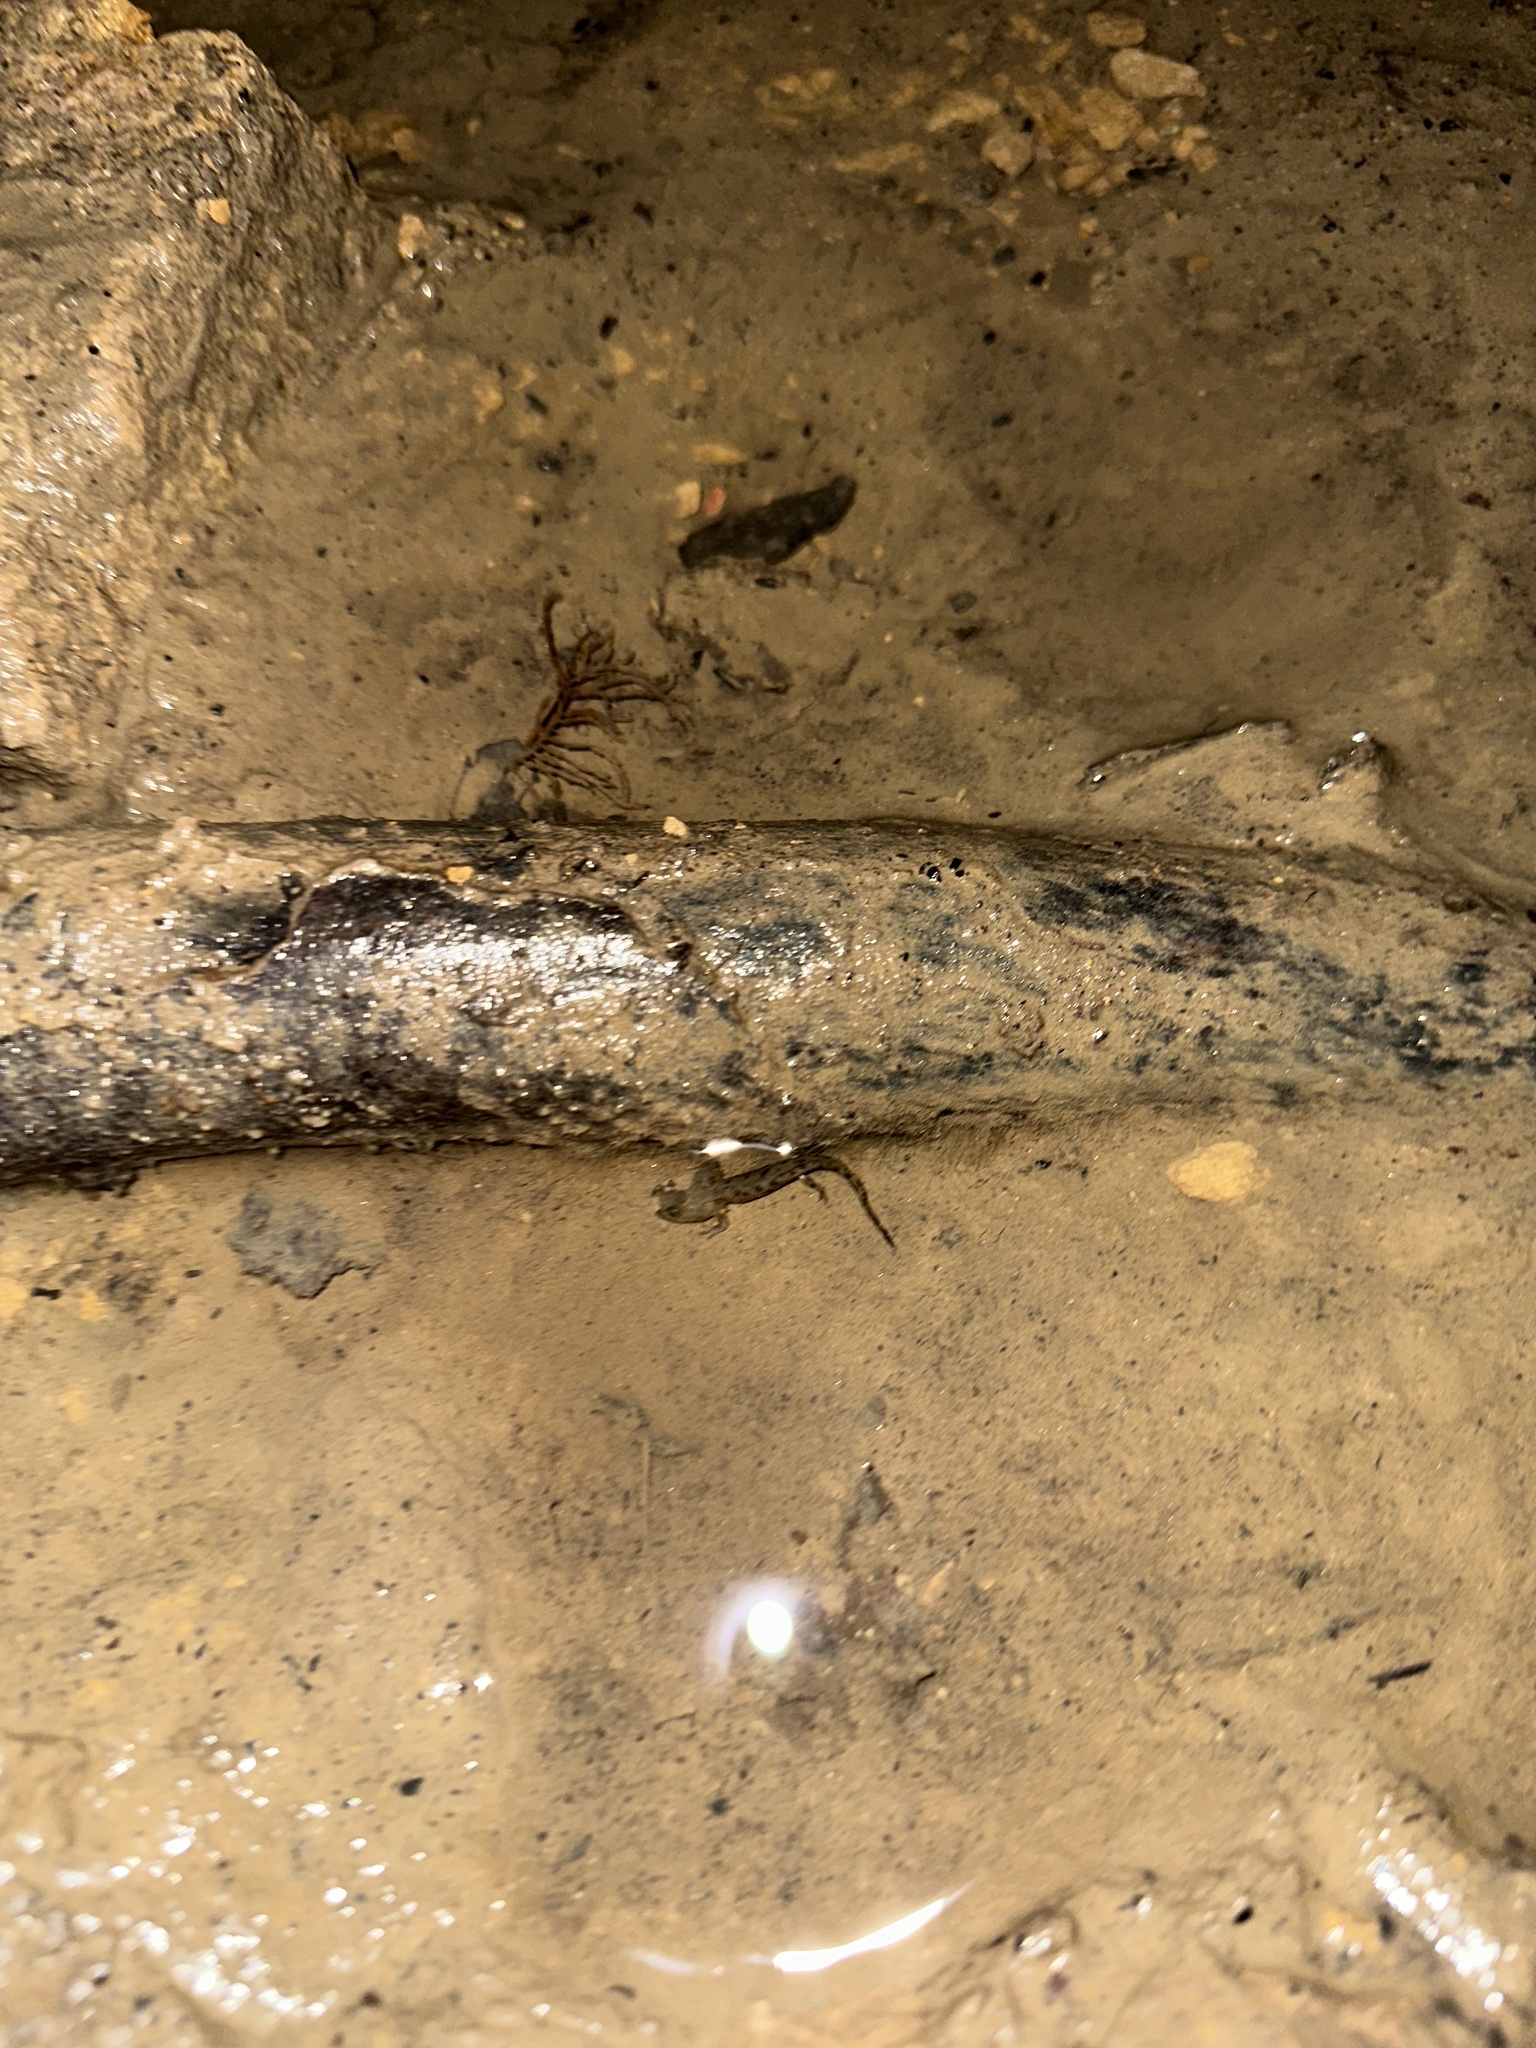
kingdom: Animalia
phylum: Chordata
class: Amphibia
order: Caudata
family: Salamandridae
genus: Salamandra
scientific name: Salamandra salamandra
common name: Fire salamander
